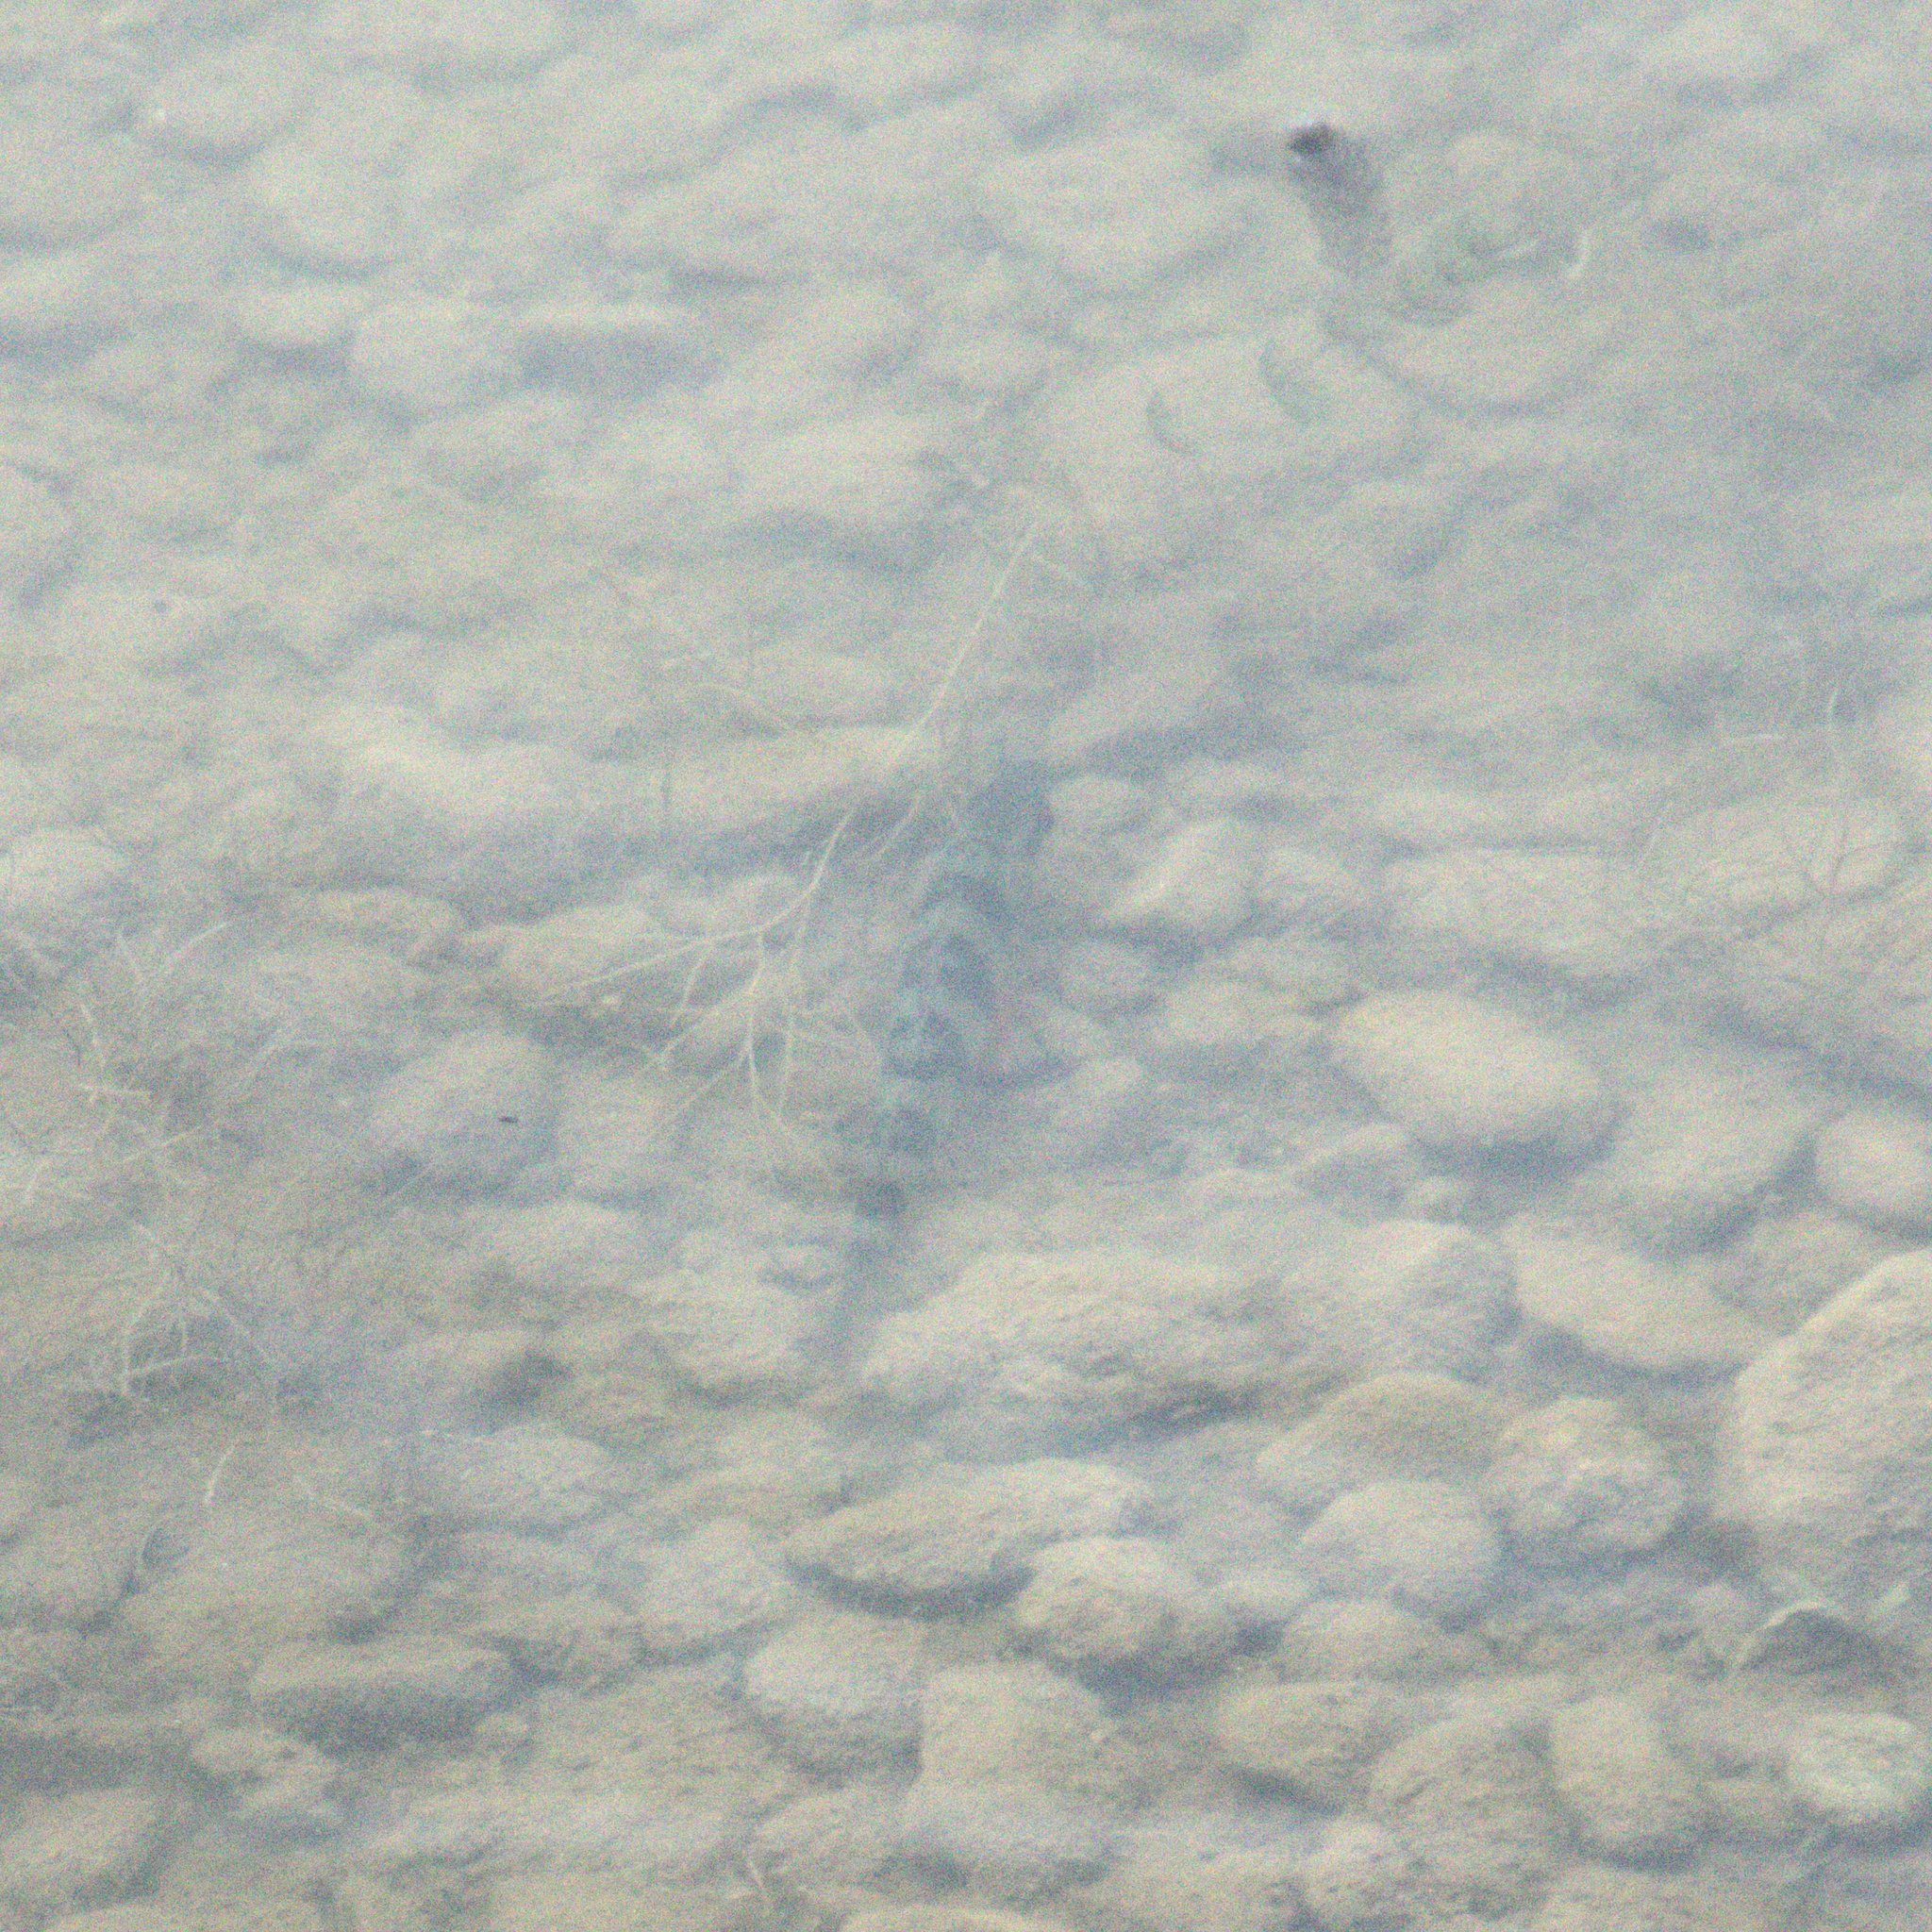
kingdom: Animalia
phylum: Chordata
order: Perciformes
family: Percidae
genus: Perca
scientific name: Perca fluviatilis
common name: Perch
